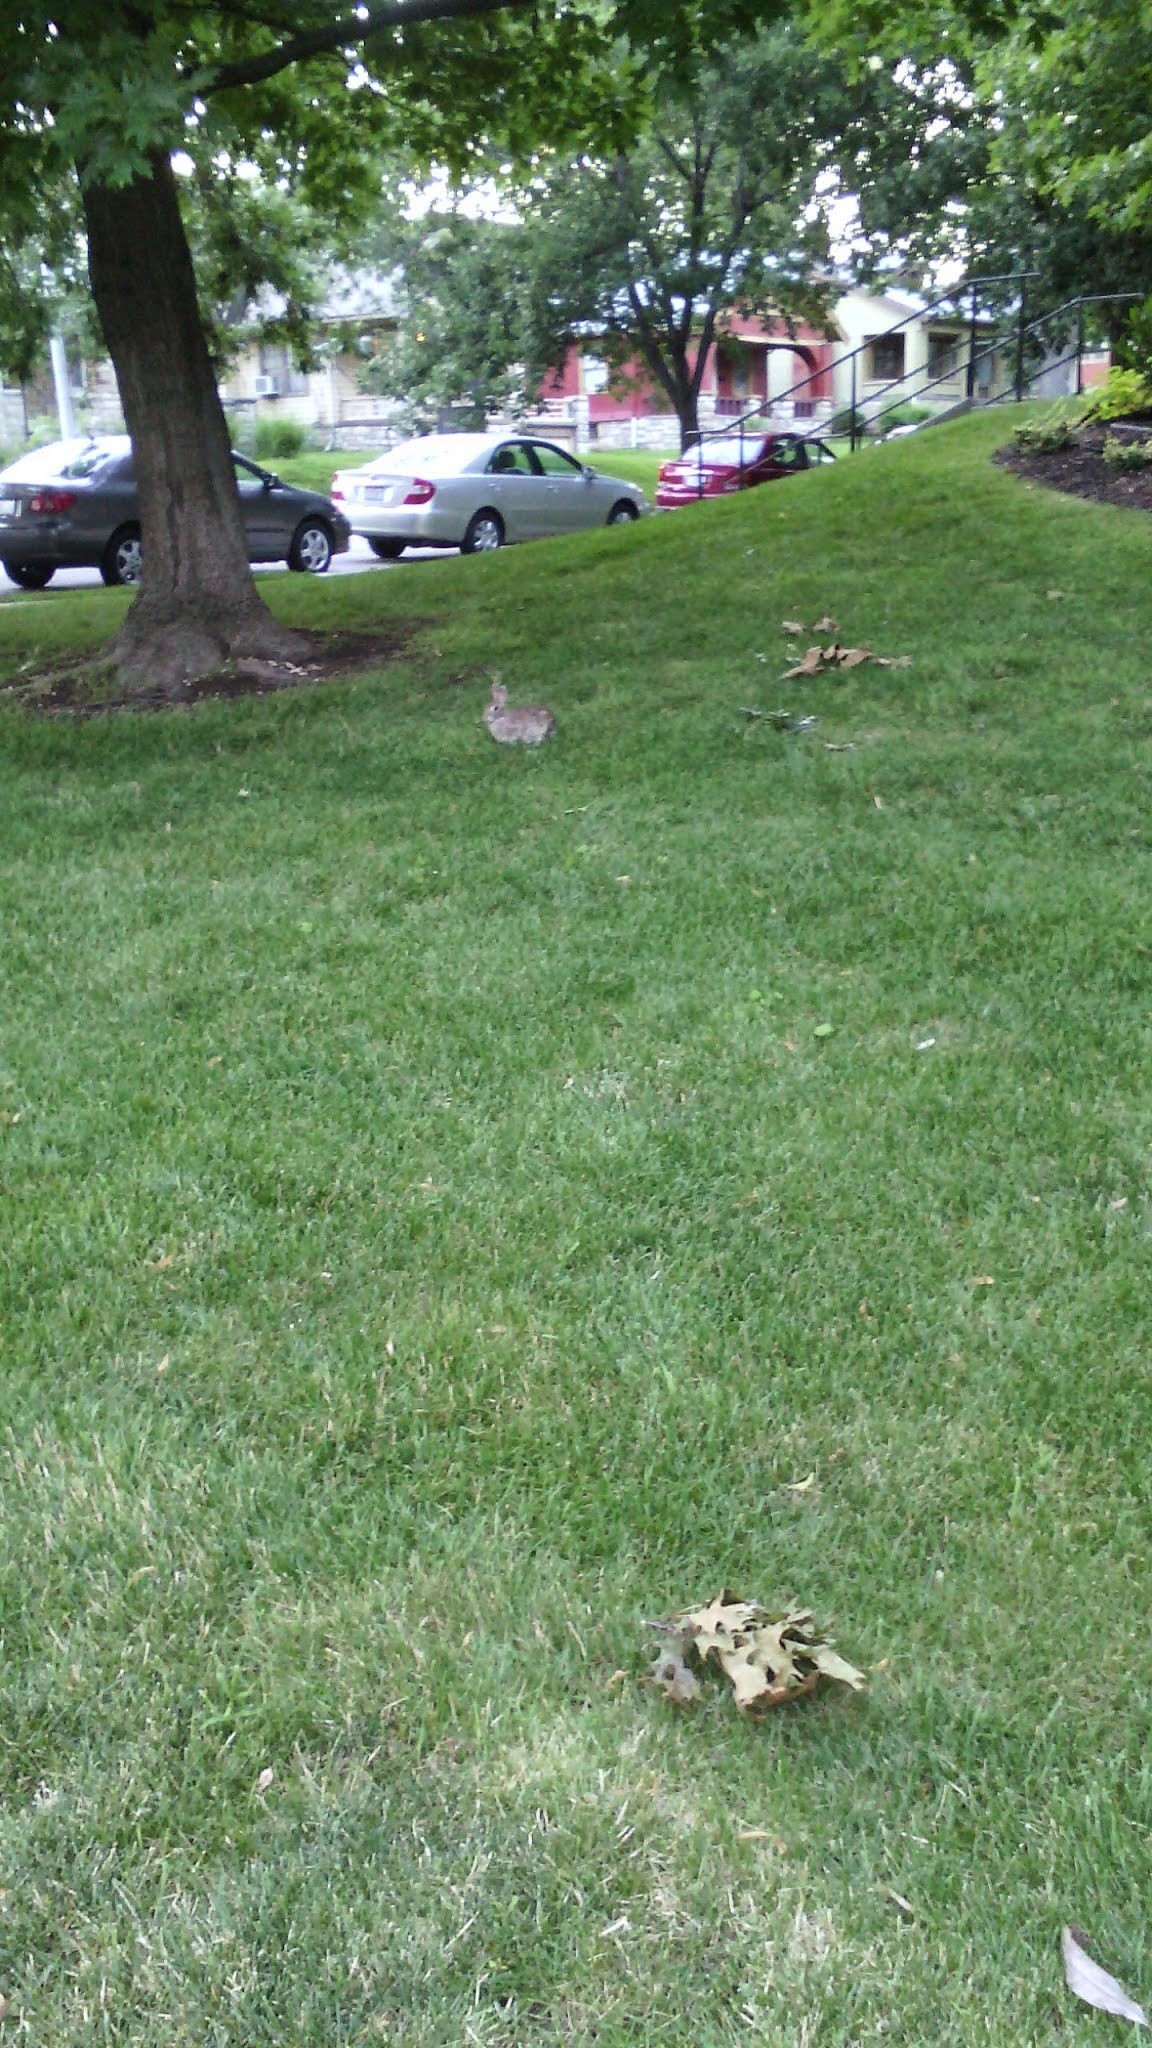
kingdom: Animalia
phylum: Chordata
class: Mammalia
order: Lagomorpha
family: Leporidae
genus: Sylvilagus
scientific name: Sylvilagus floridanus
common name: Eastern cottontail
